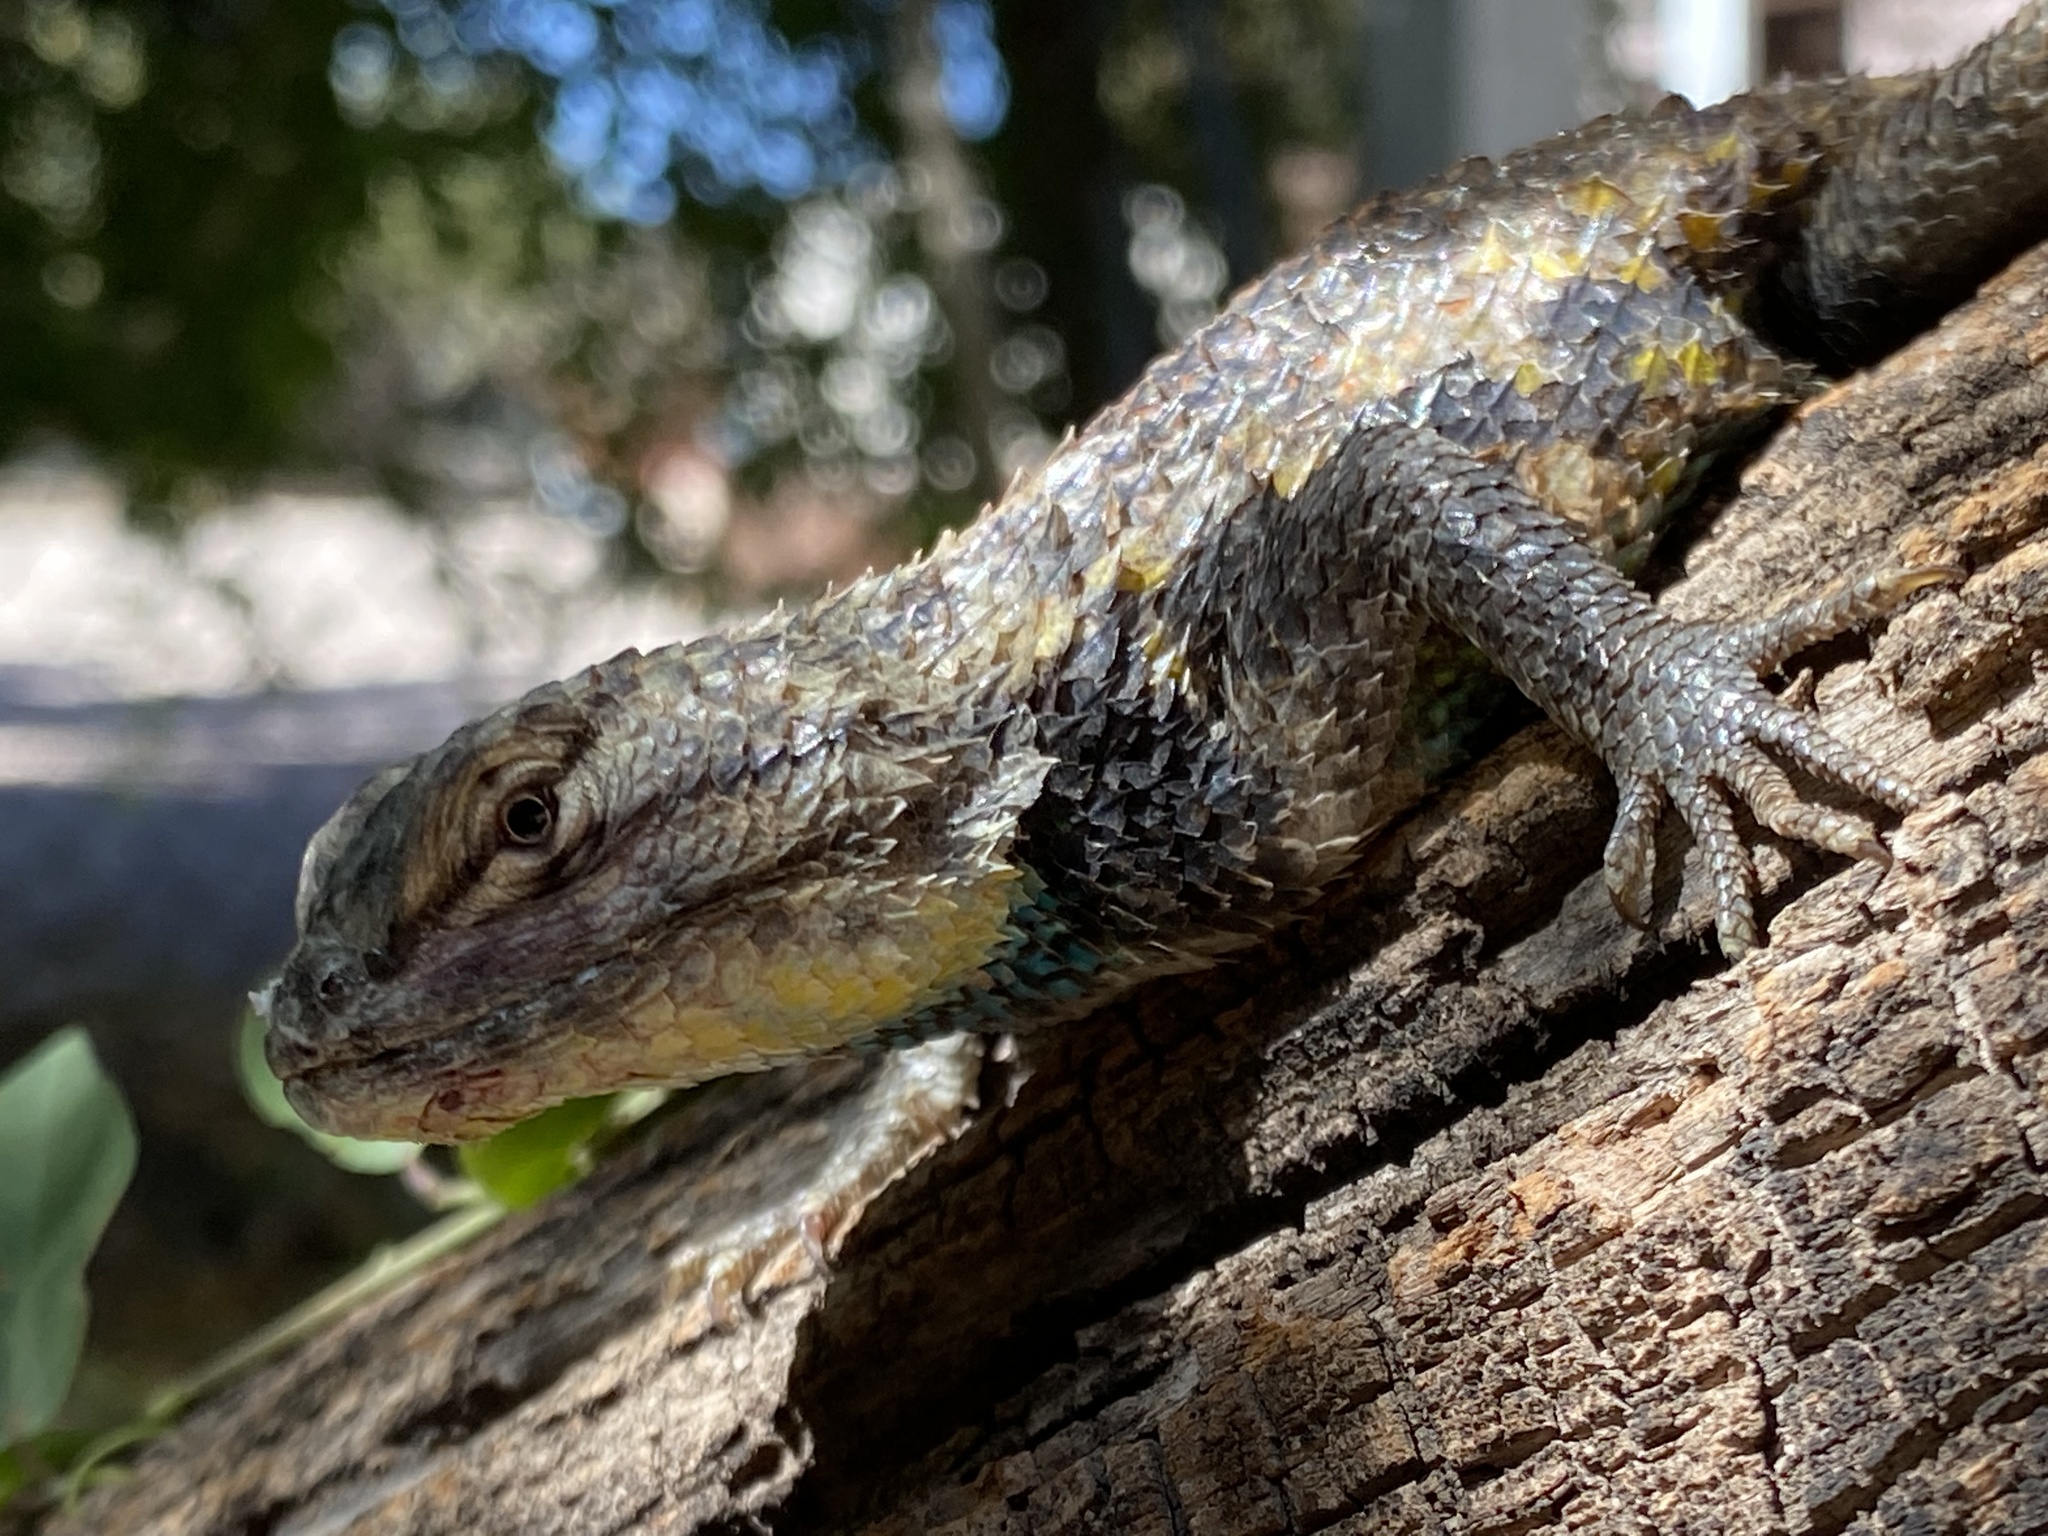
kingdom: Animalia
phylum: Chordata
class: Squamata
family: Phrynosomatidae
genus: Sceloporus
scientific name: Sceloporus magister
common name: Desert spiny lizard
